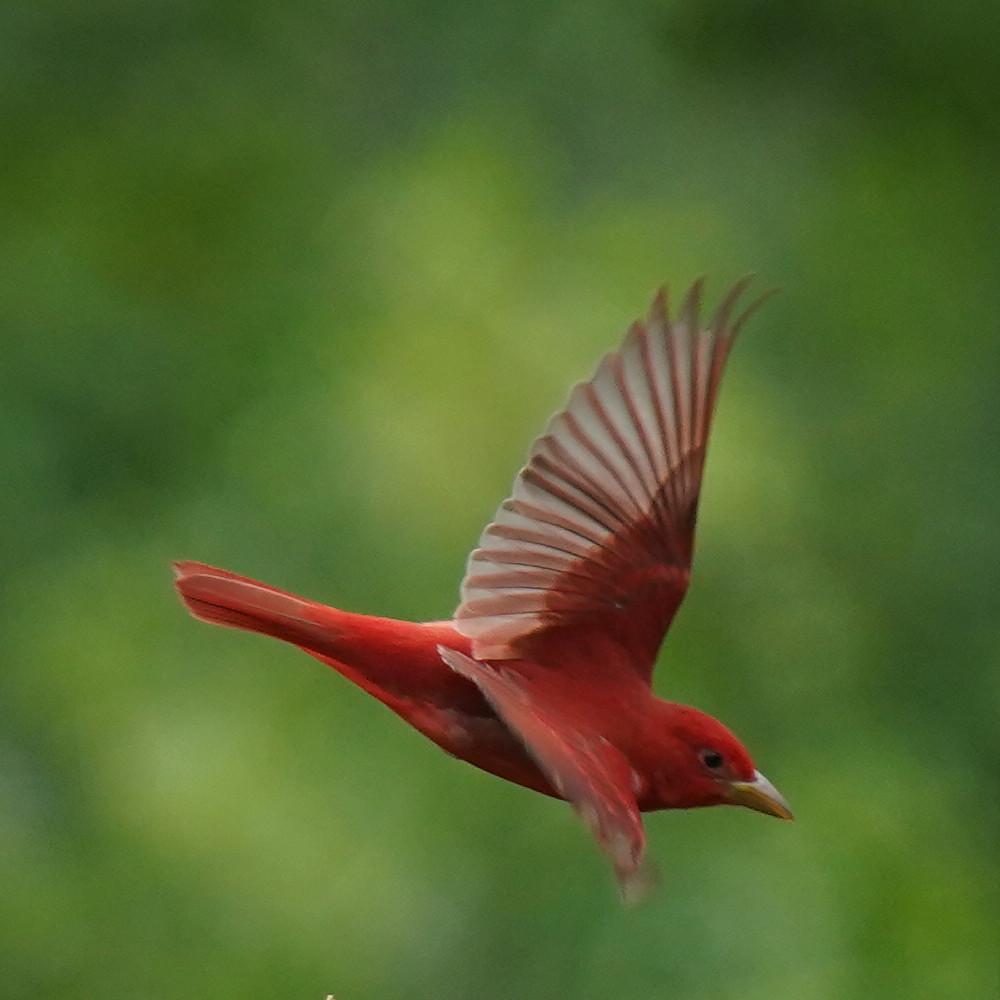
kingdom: Animalia
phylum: Chordata
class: Aves
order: Passeriformes
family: Cardinalidae
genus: Piranga
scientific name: Piranga rubra
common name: Summer tanager
